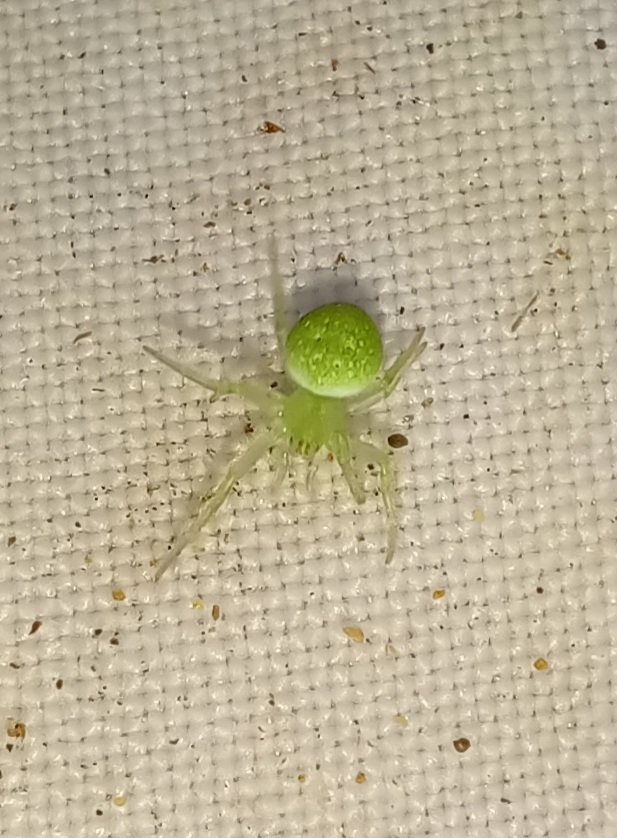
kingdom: Animalia
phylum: Arthropoda
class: Arachnida
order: Araneae
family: Araneidae
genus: Araneus
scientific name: Araneus circulissparsus
